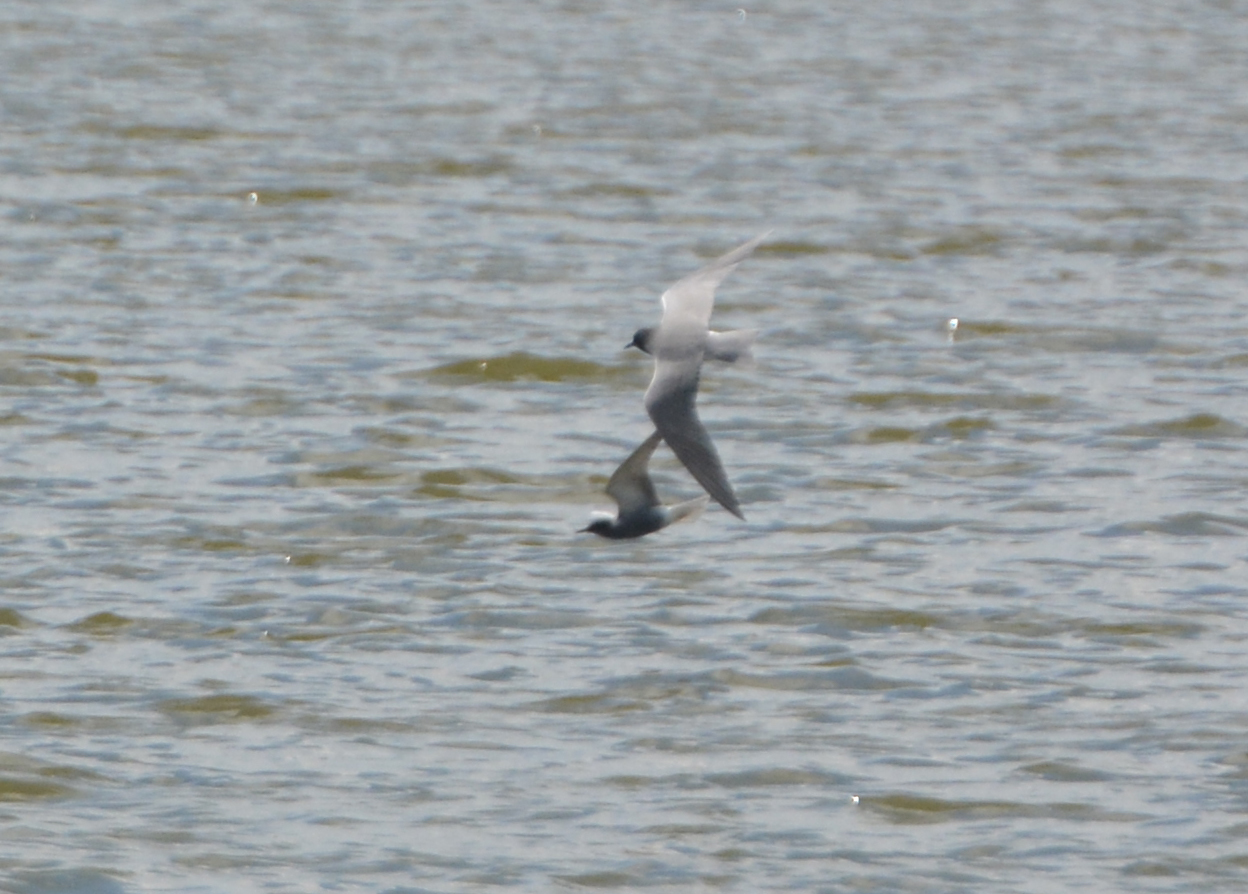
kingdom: Animalia
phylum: Chordata
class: Aves
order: Charadriiformes
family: Laridae
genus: Chlidonias
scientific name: Chlidonias niger
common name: Black tern
